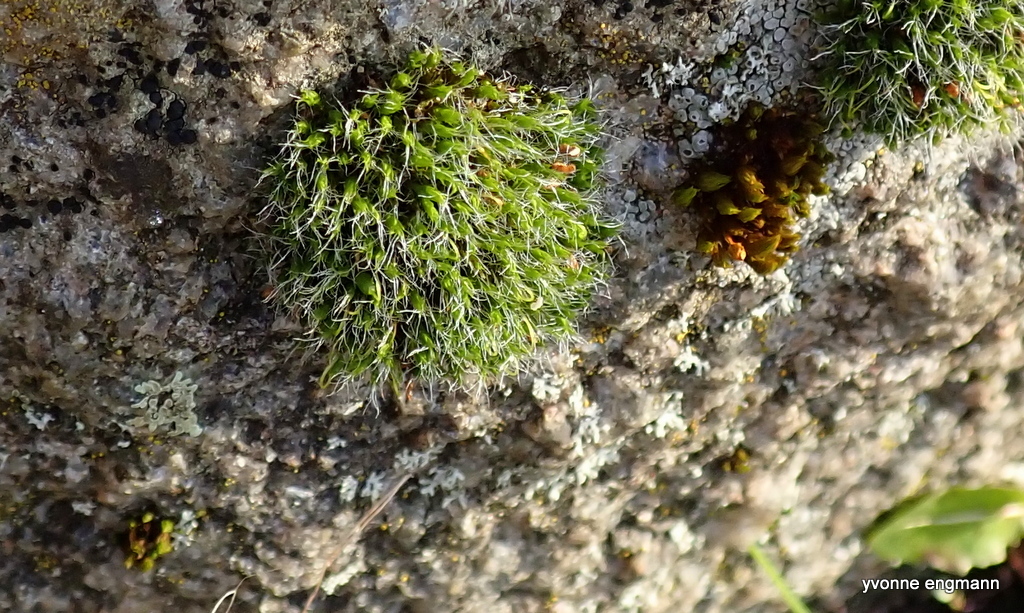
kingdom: Plantae
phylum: Bryophyta
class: Bryopsida
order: Grimmiales
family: Grimmiaceae
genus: Grimmia
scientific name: Grimmia pulvinata
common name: Grey-cushioned grimmia
